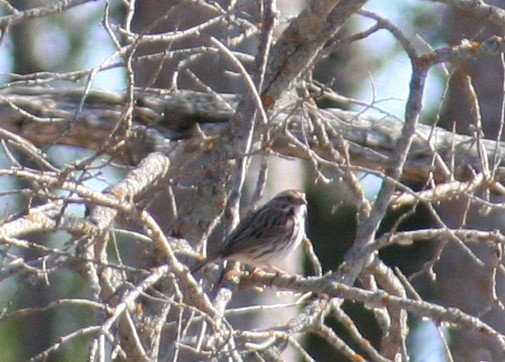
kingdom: Animalia
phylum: Chordata
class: Aves
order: Passeriformes
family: Passerellidae
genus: Melospiza
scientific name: Melospiza melodia
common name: Song sparrow
